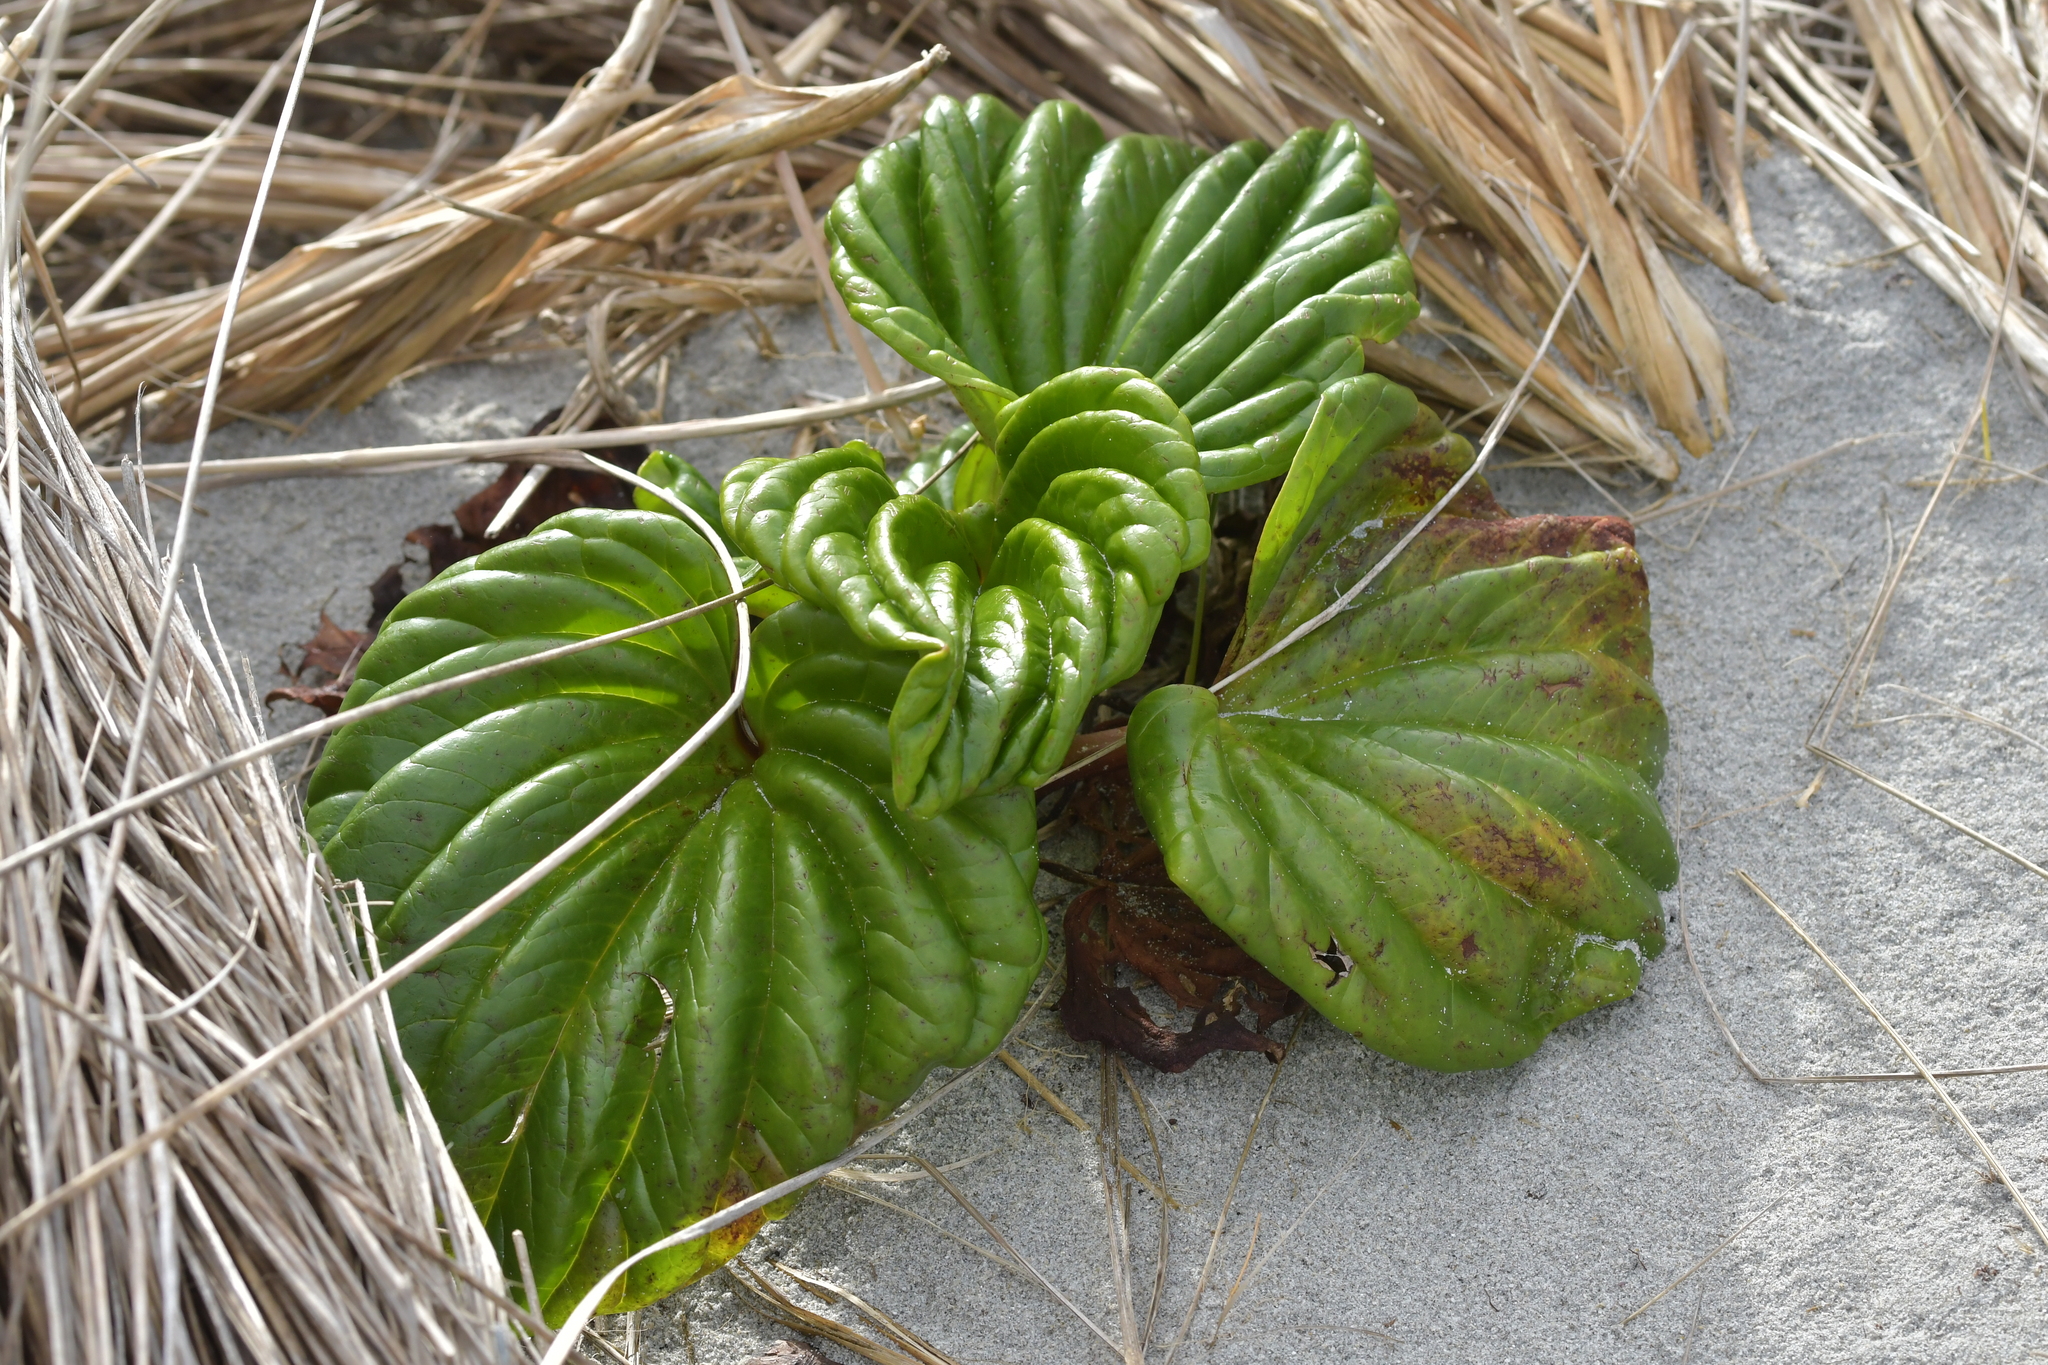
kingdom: Plantae
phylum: Tracheophyta
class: Magnoliopsida
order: Boraginales
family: Boraginaceae
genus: Myosotidium
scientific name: Myosotidium hortensia
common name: Giant forget-me-not
